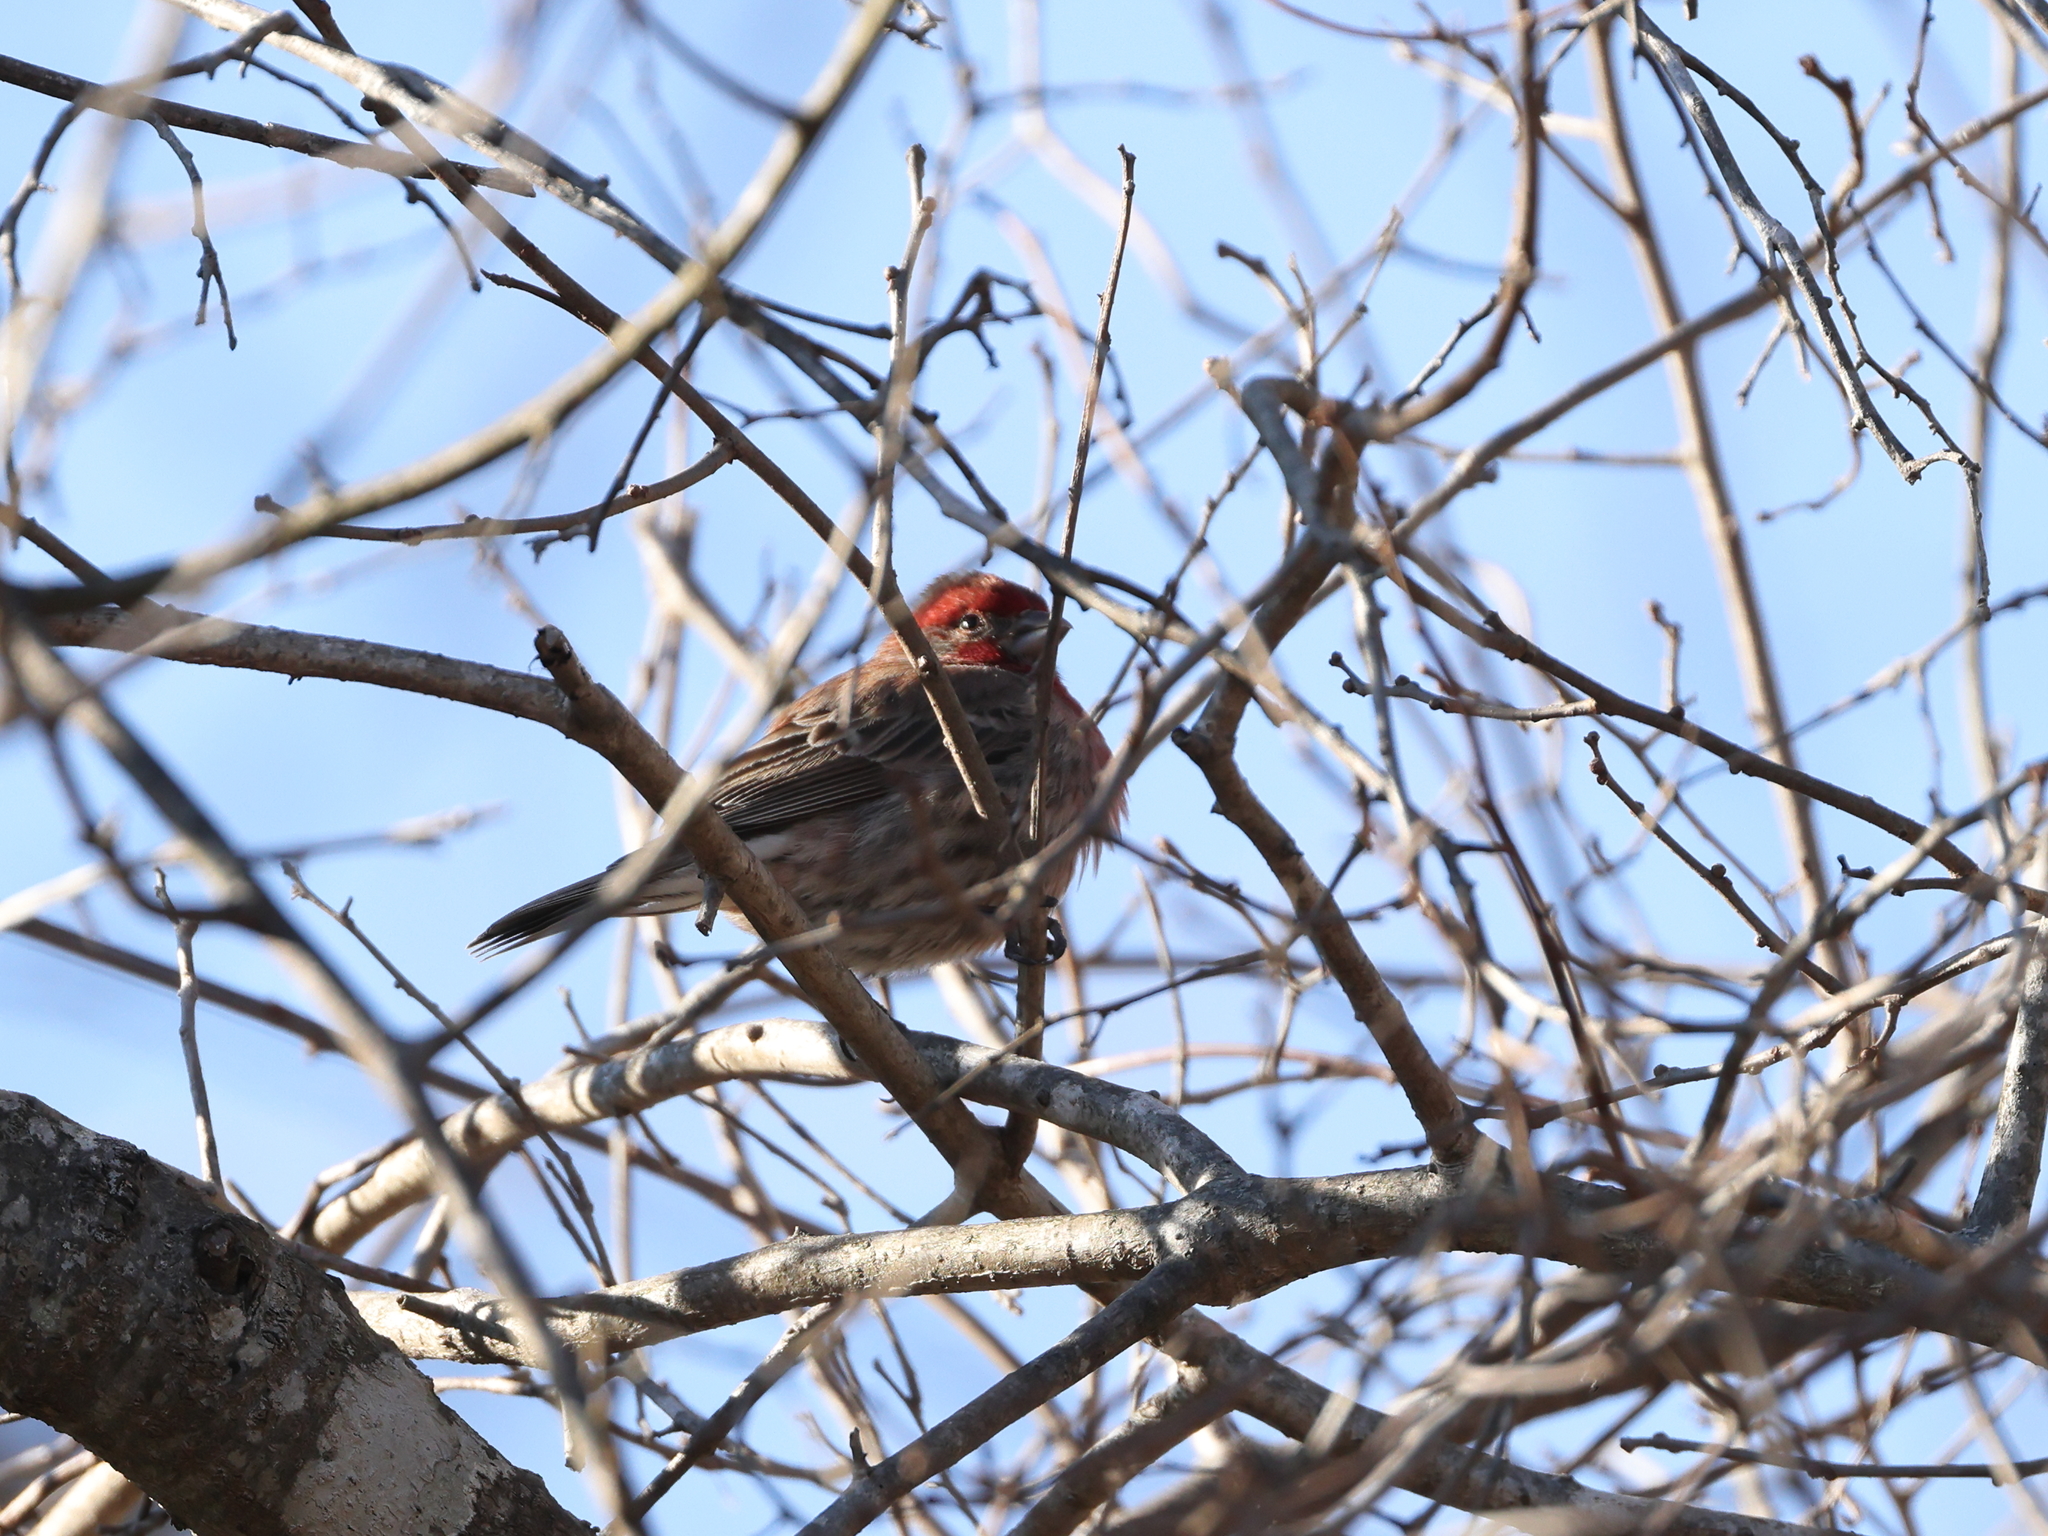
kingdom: Animalia
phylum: Chordata
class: Aves
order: Passeriformes
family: Fringillidae
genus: Haemorhous
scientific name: Haemorhous mexicanus
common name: House finch
